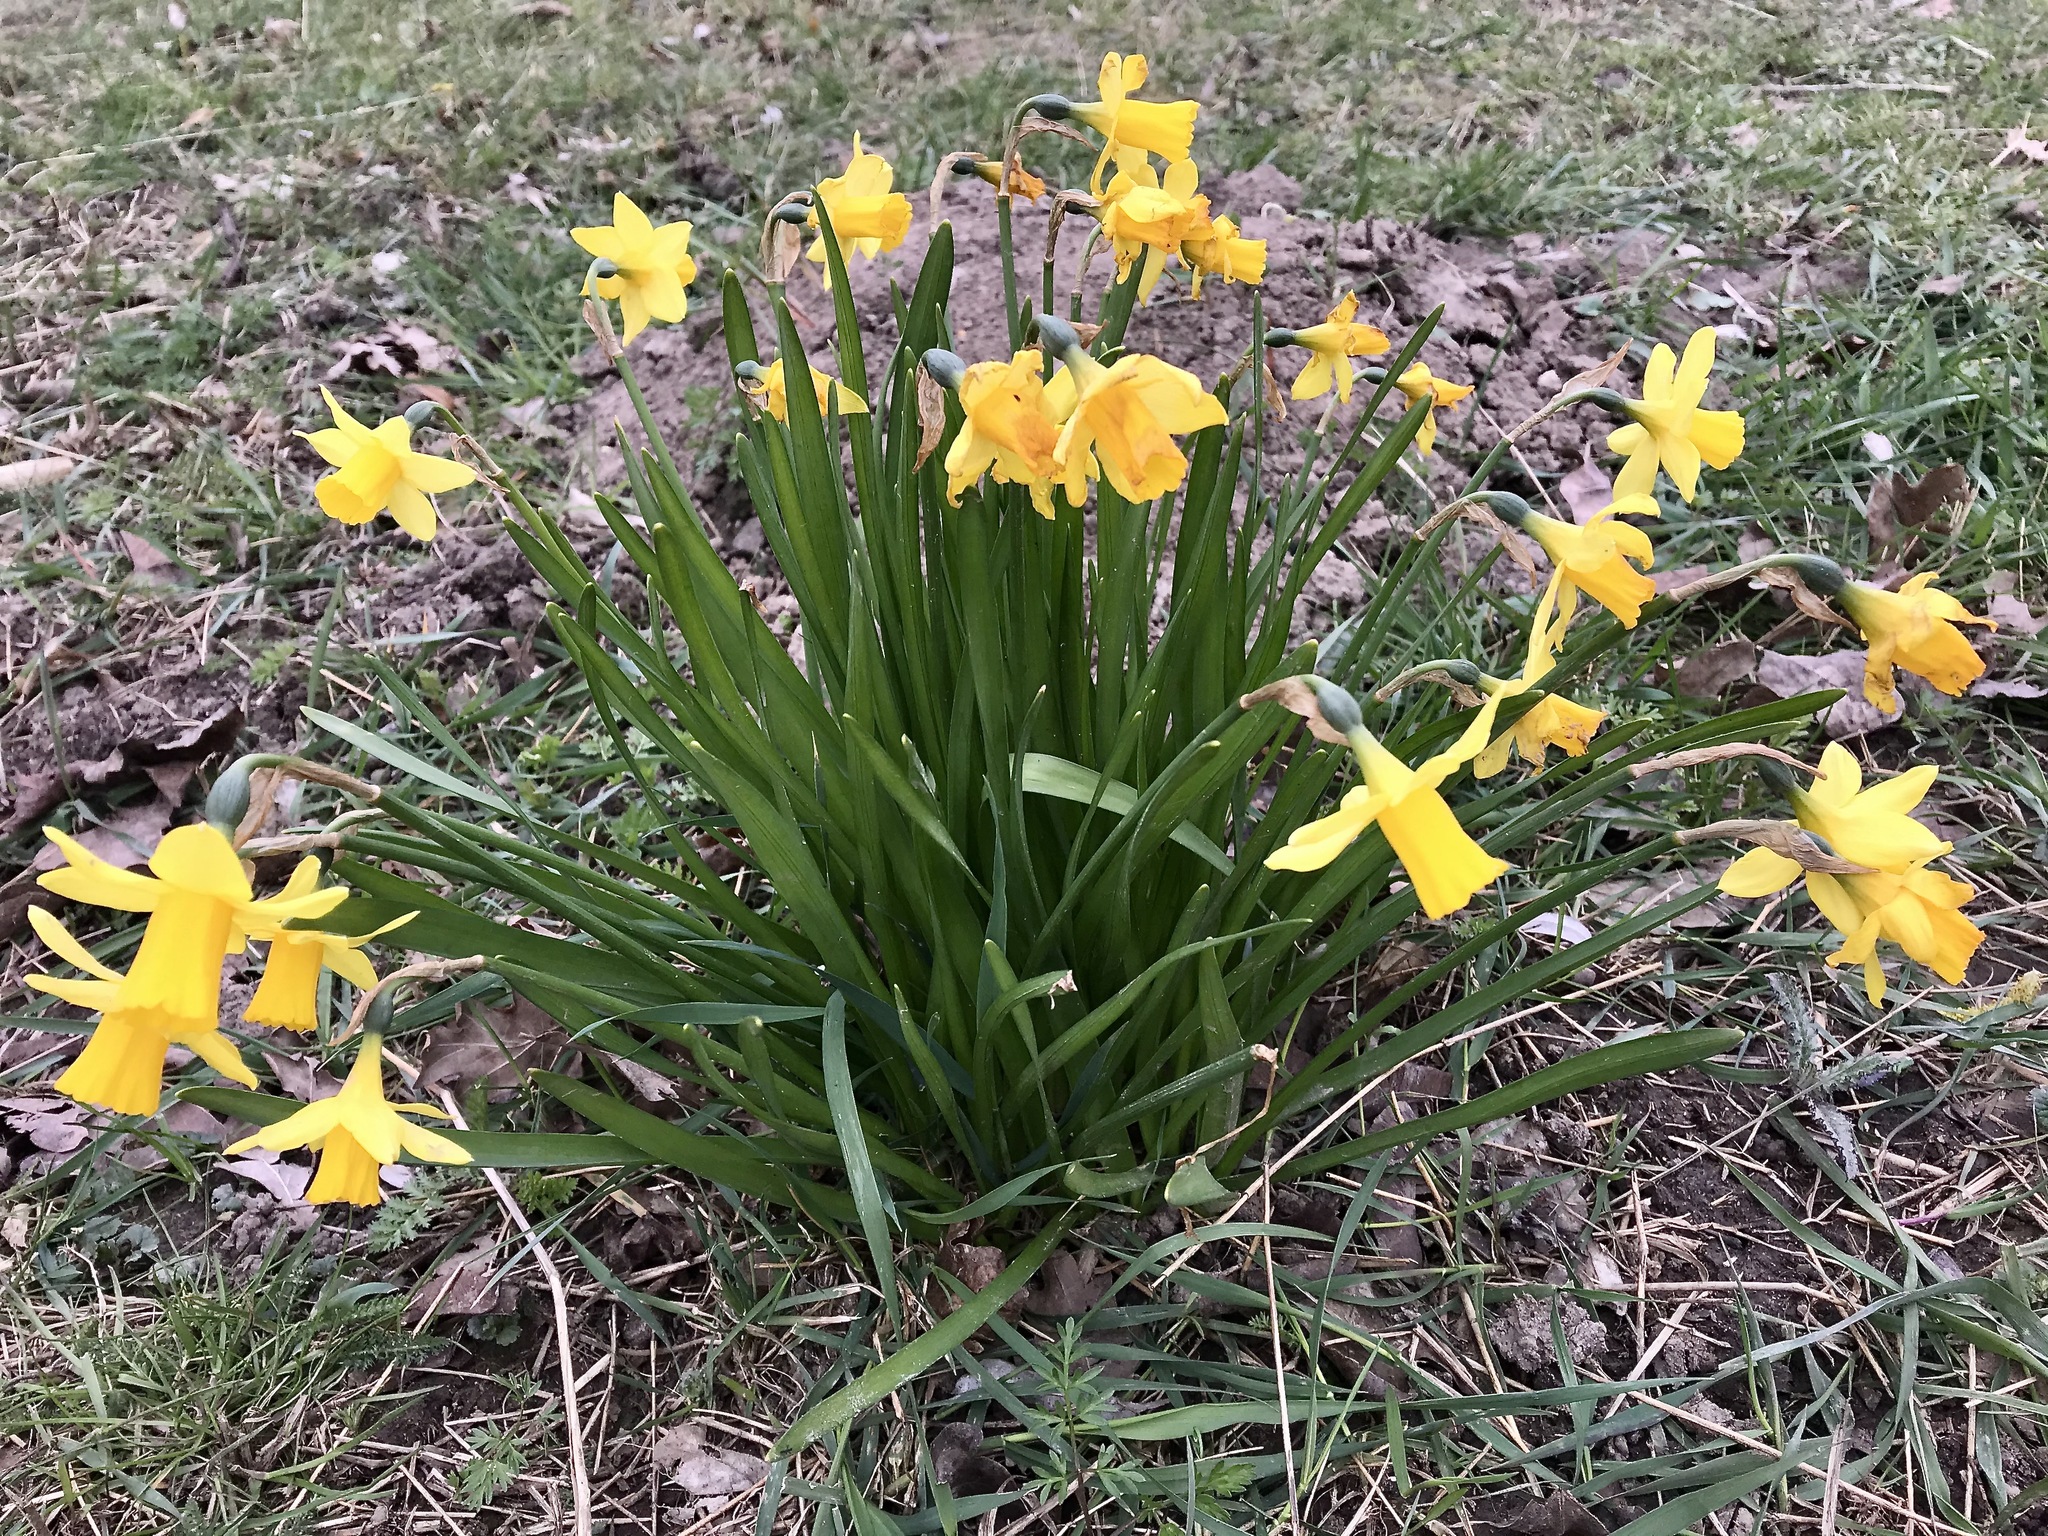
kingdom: Plantae
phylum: Tracheophyta
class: Liliopsida
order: Asparagales
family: Amaryllidaceae
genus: Narcissus
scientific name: Narcissus pseudonarcissus
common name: Daffodil
